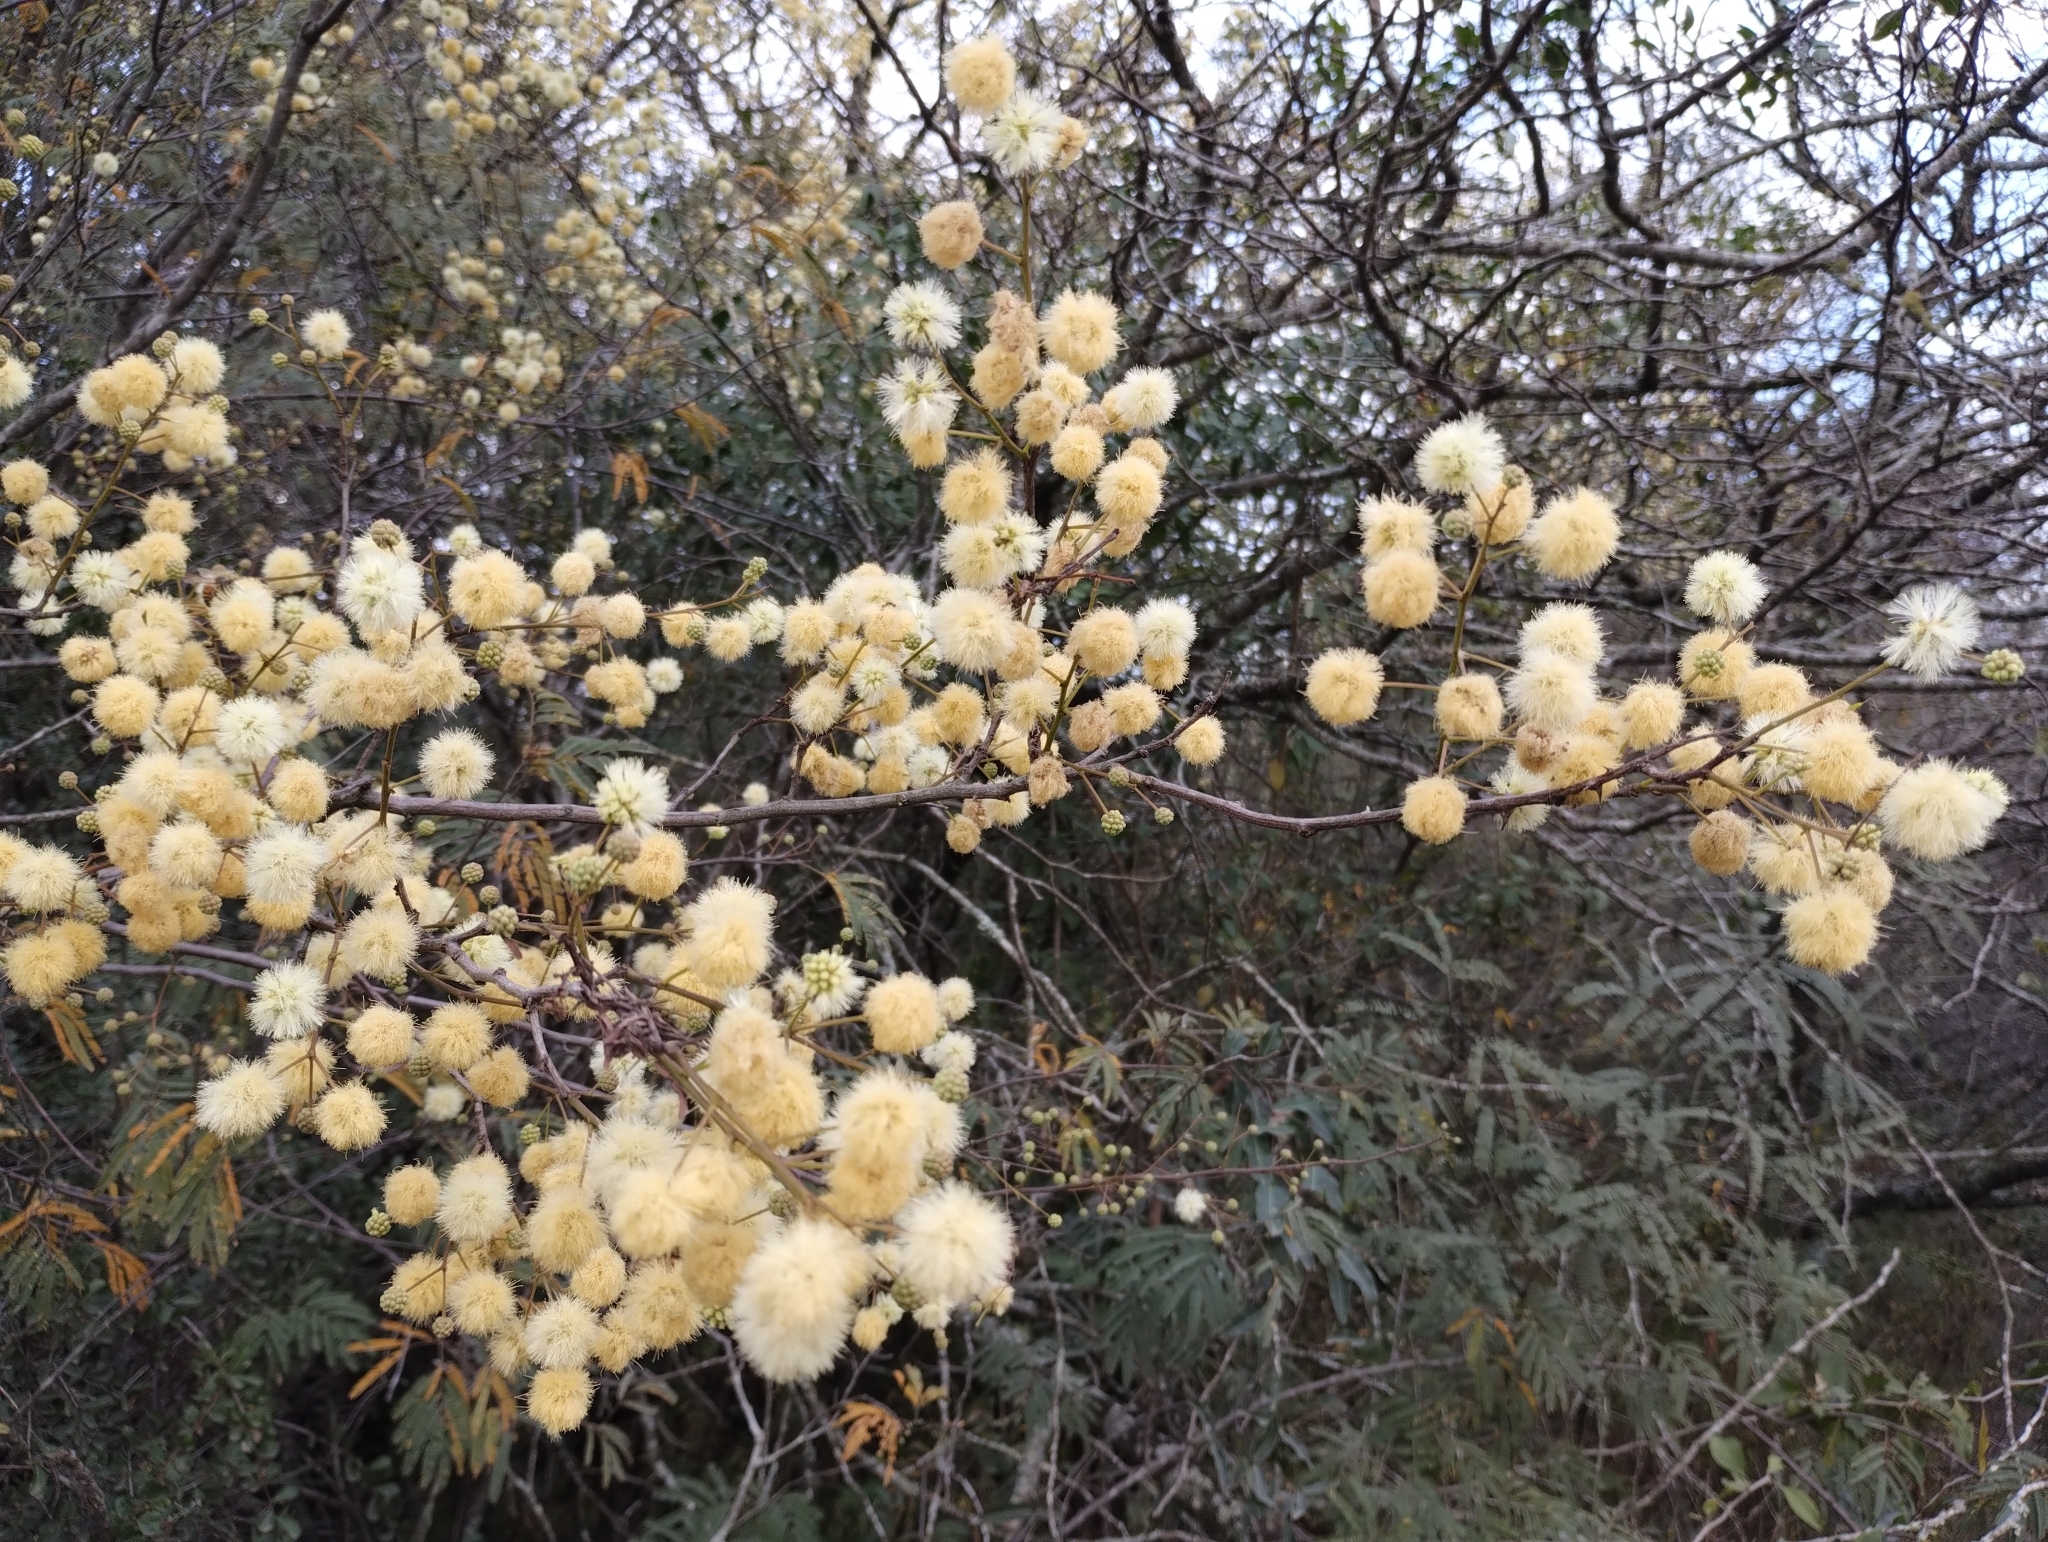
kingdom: Plantae
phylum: Tracheophyta
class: Magnoliopsida
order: Fabales
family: Fabaceae
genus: Senegalia
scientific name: Senegalia praecox
